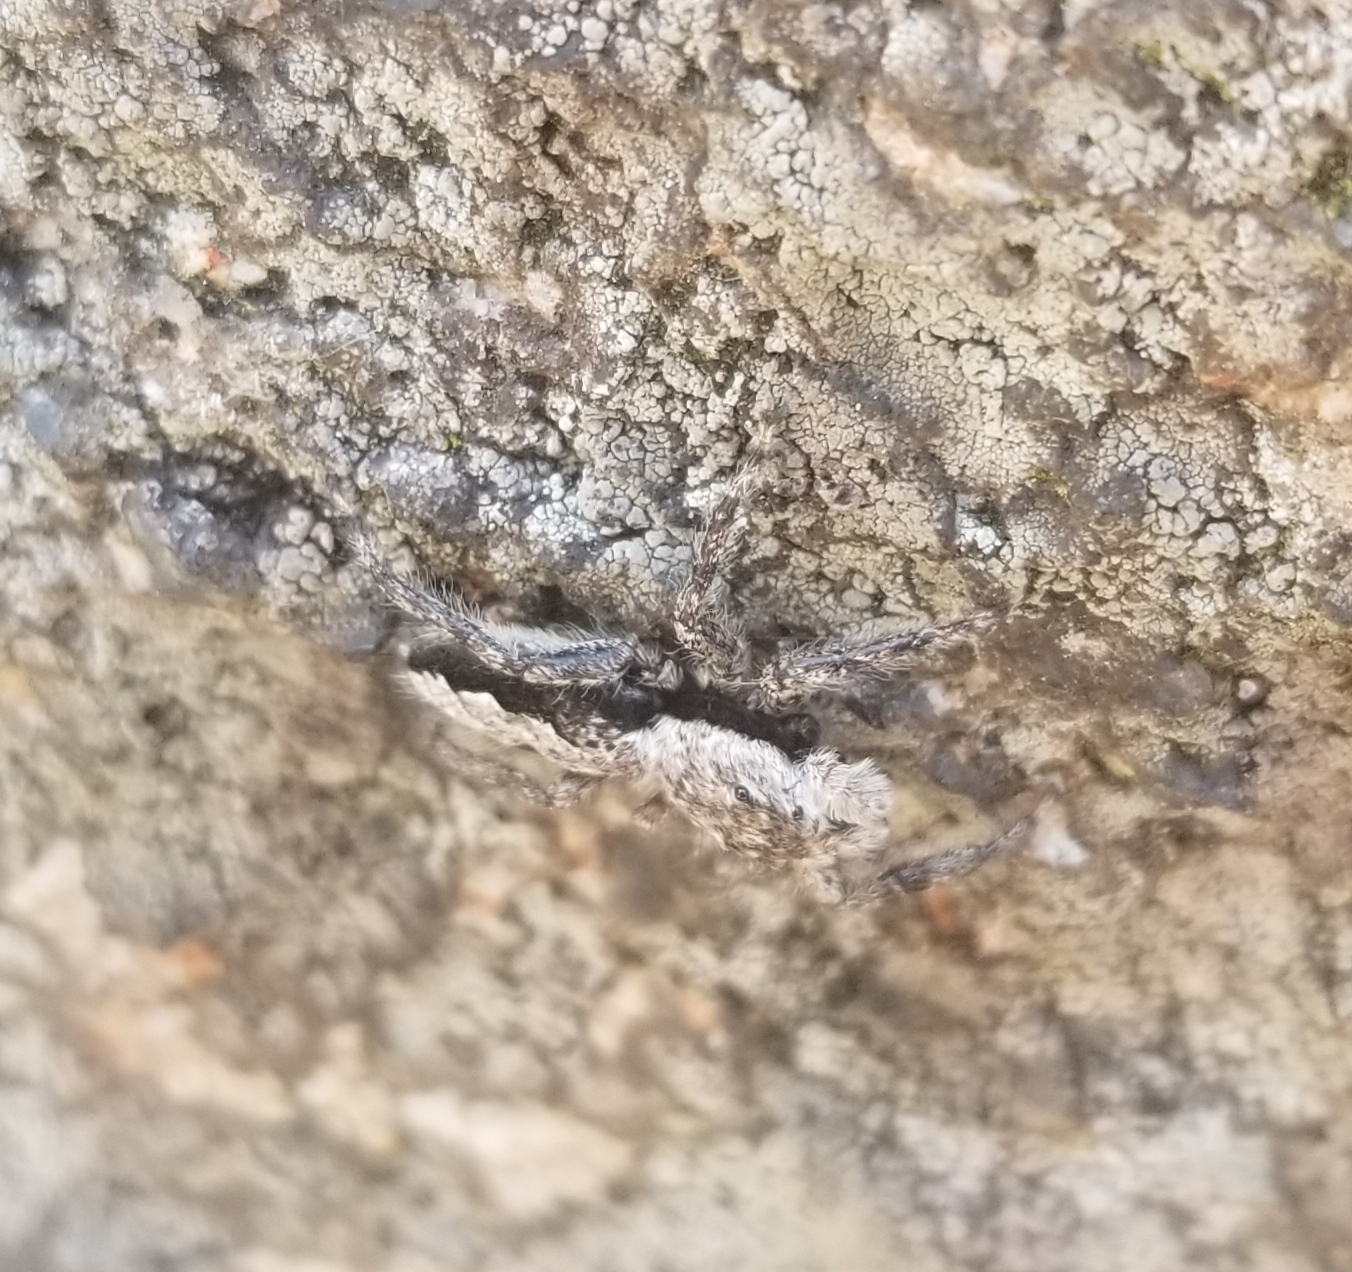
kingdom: Animalia
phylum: Arthropoda
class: Arachnida
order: Araneae
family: Salticidae
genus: Platycryptus
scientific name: Platycryptus undatus
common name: Tan jumping spider
